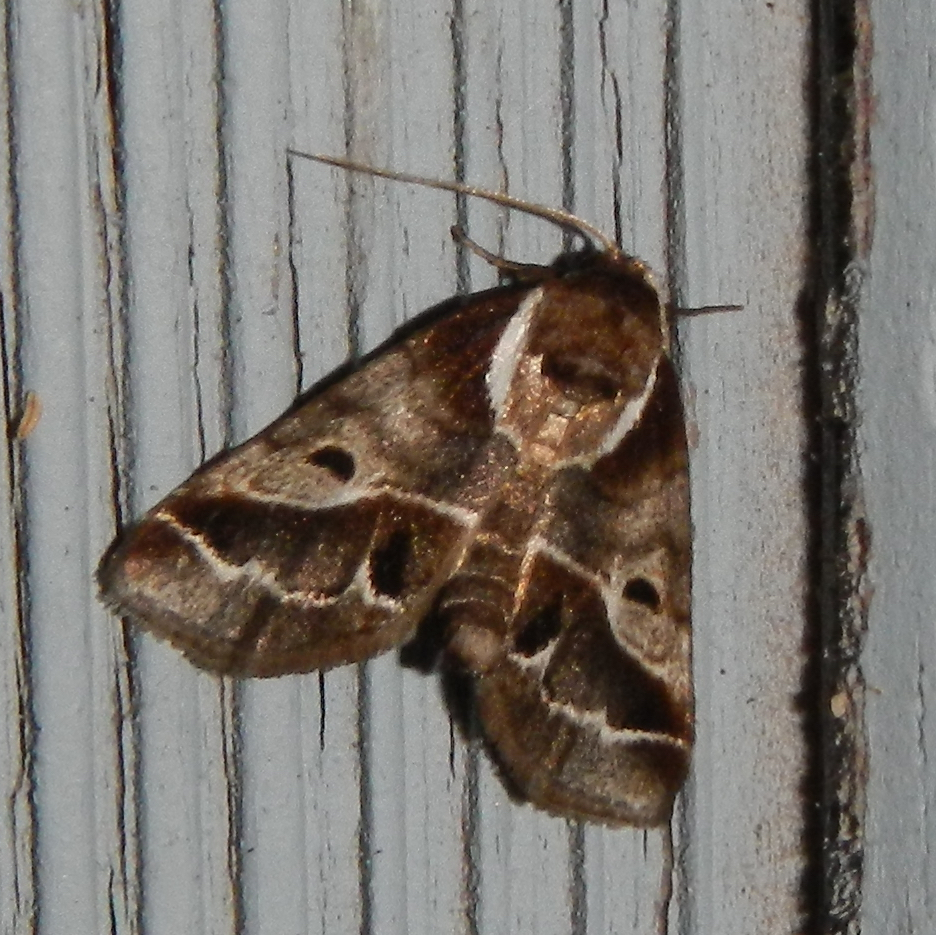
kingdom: Animalia
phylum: Arthropoda
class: Insecta
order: Lepidoptera
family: Nolidae
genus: Baileya
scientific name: Baileya doubledayi
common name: Doubleday's baileya moth
